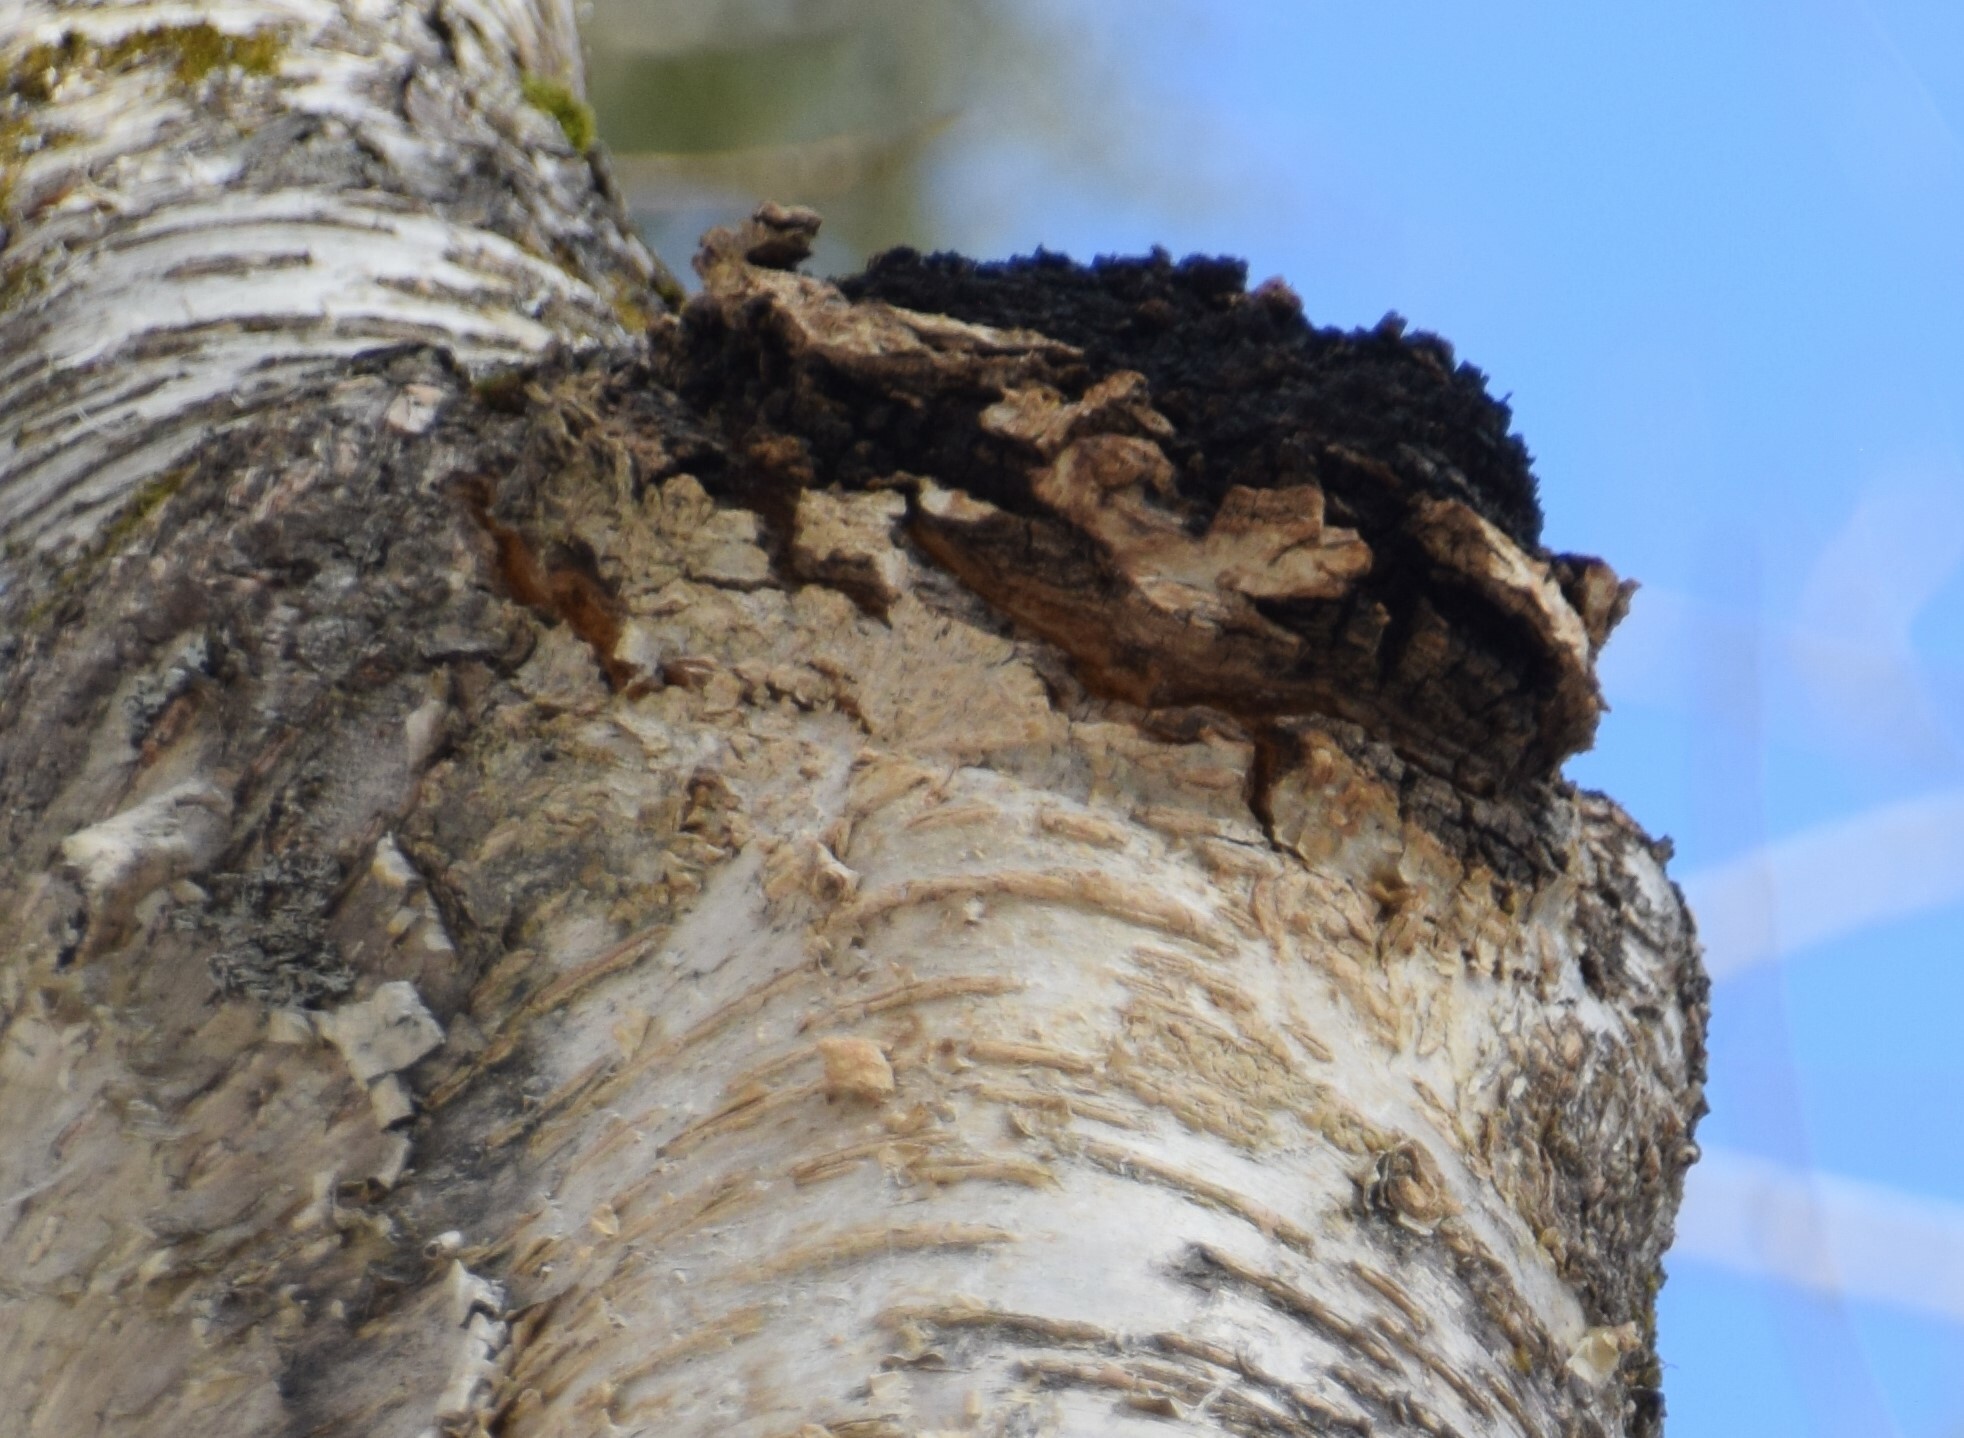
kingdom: Fungi
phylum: Basidiomycota
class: Agaricomycetes
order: Hymenochaetales
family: Hymenochaetaceae
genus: Inonotus
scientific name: Inonotus obliquus
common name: Chaga
